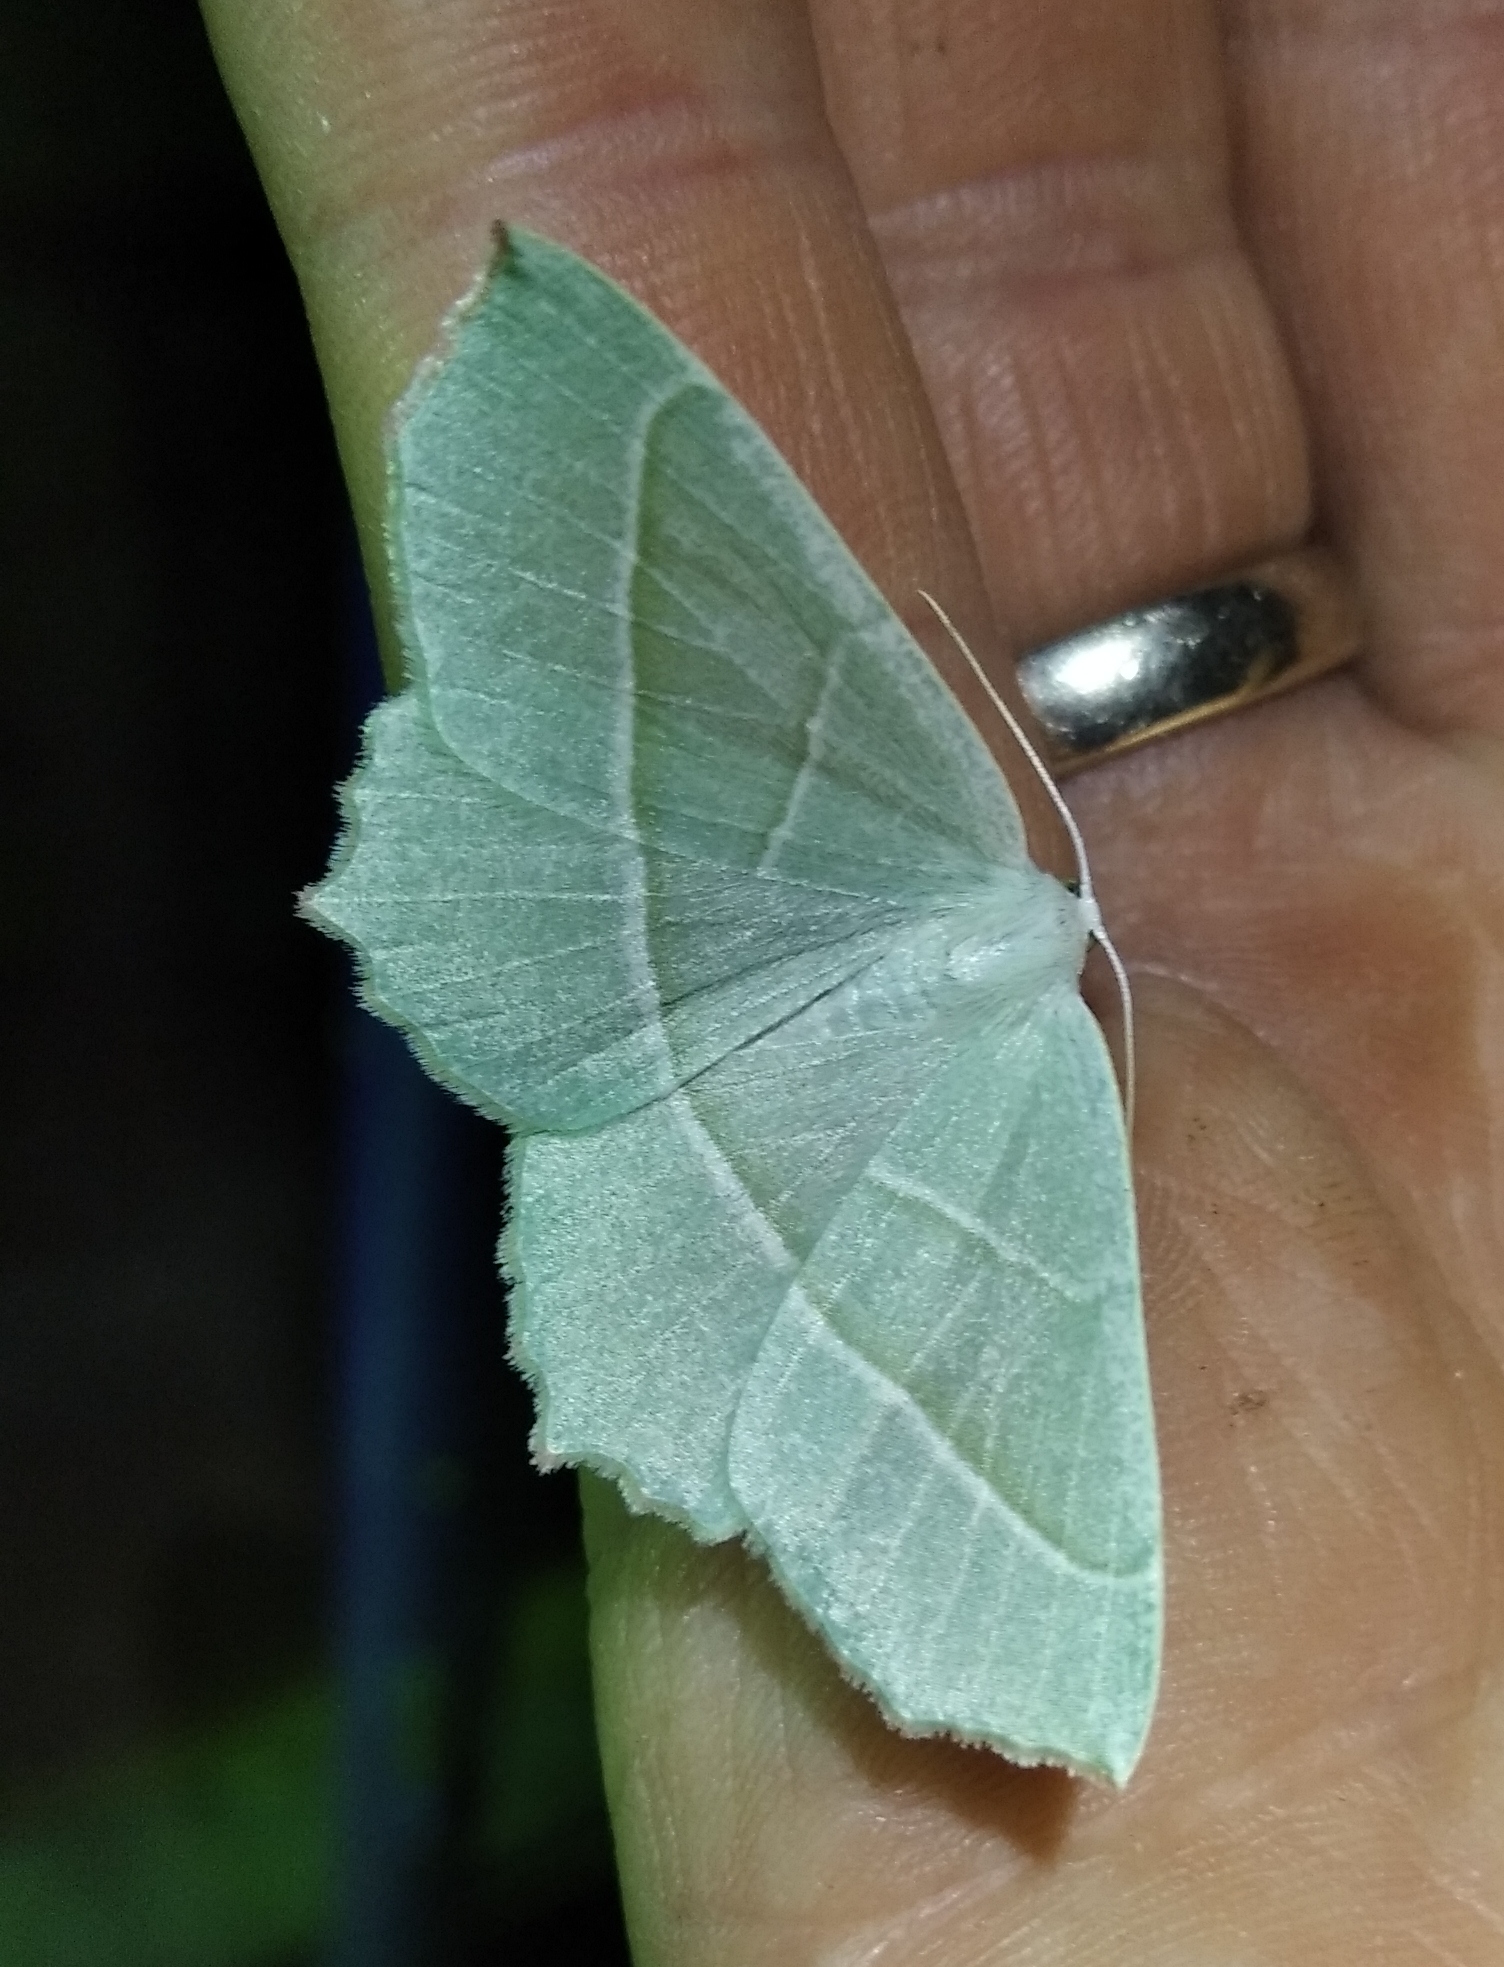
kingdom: Animalia
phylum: Arthropoda
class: Insecta
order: Lepidoptera
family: Geometridae
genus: Campaea
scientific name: Campaea margaritaria
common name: Light emerald
